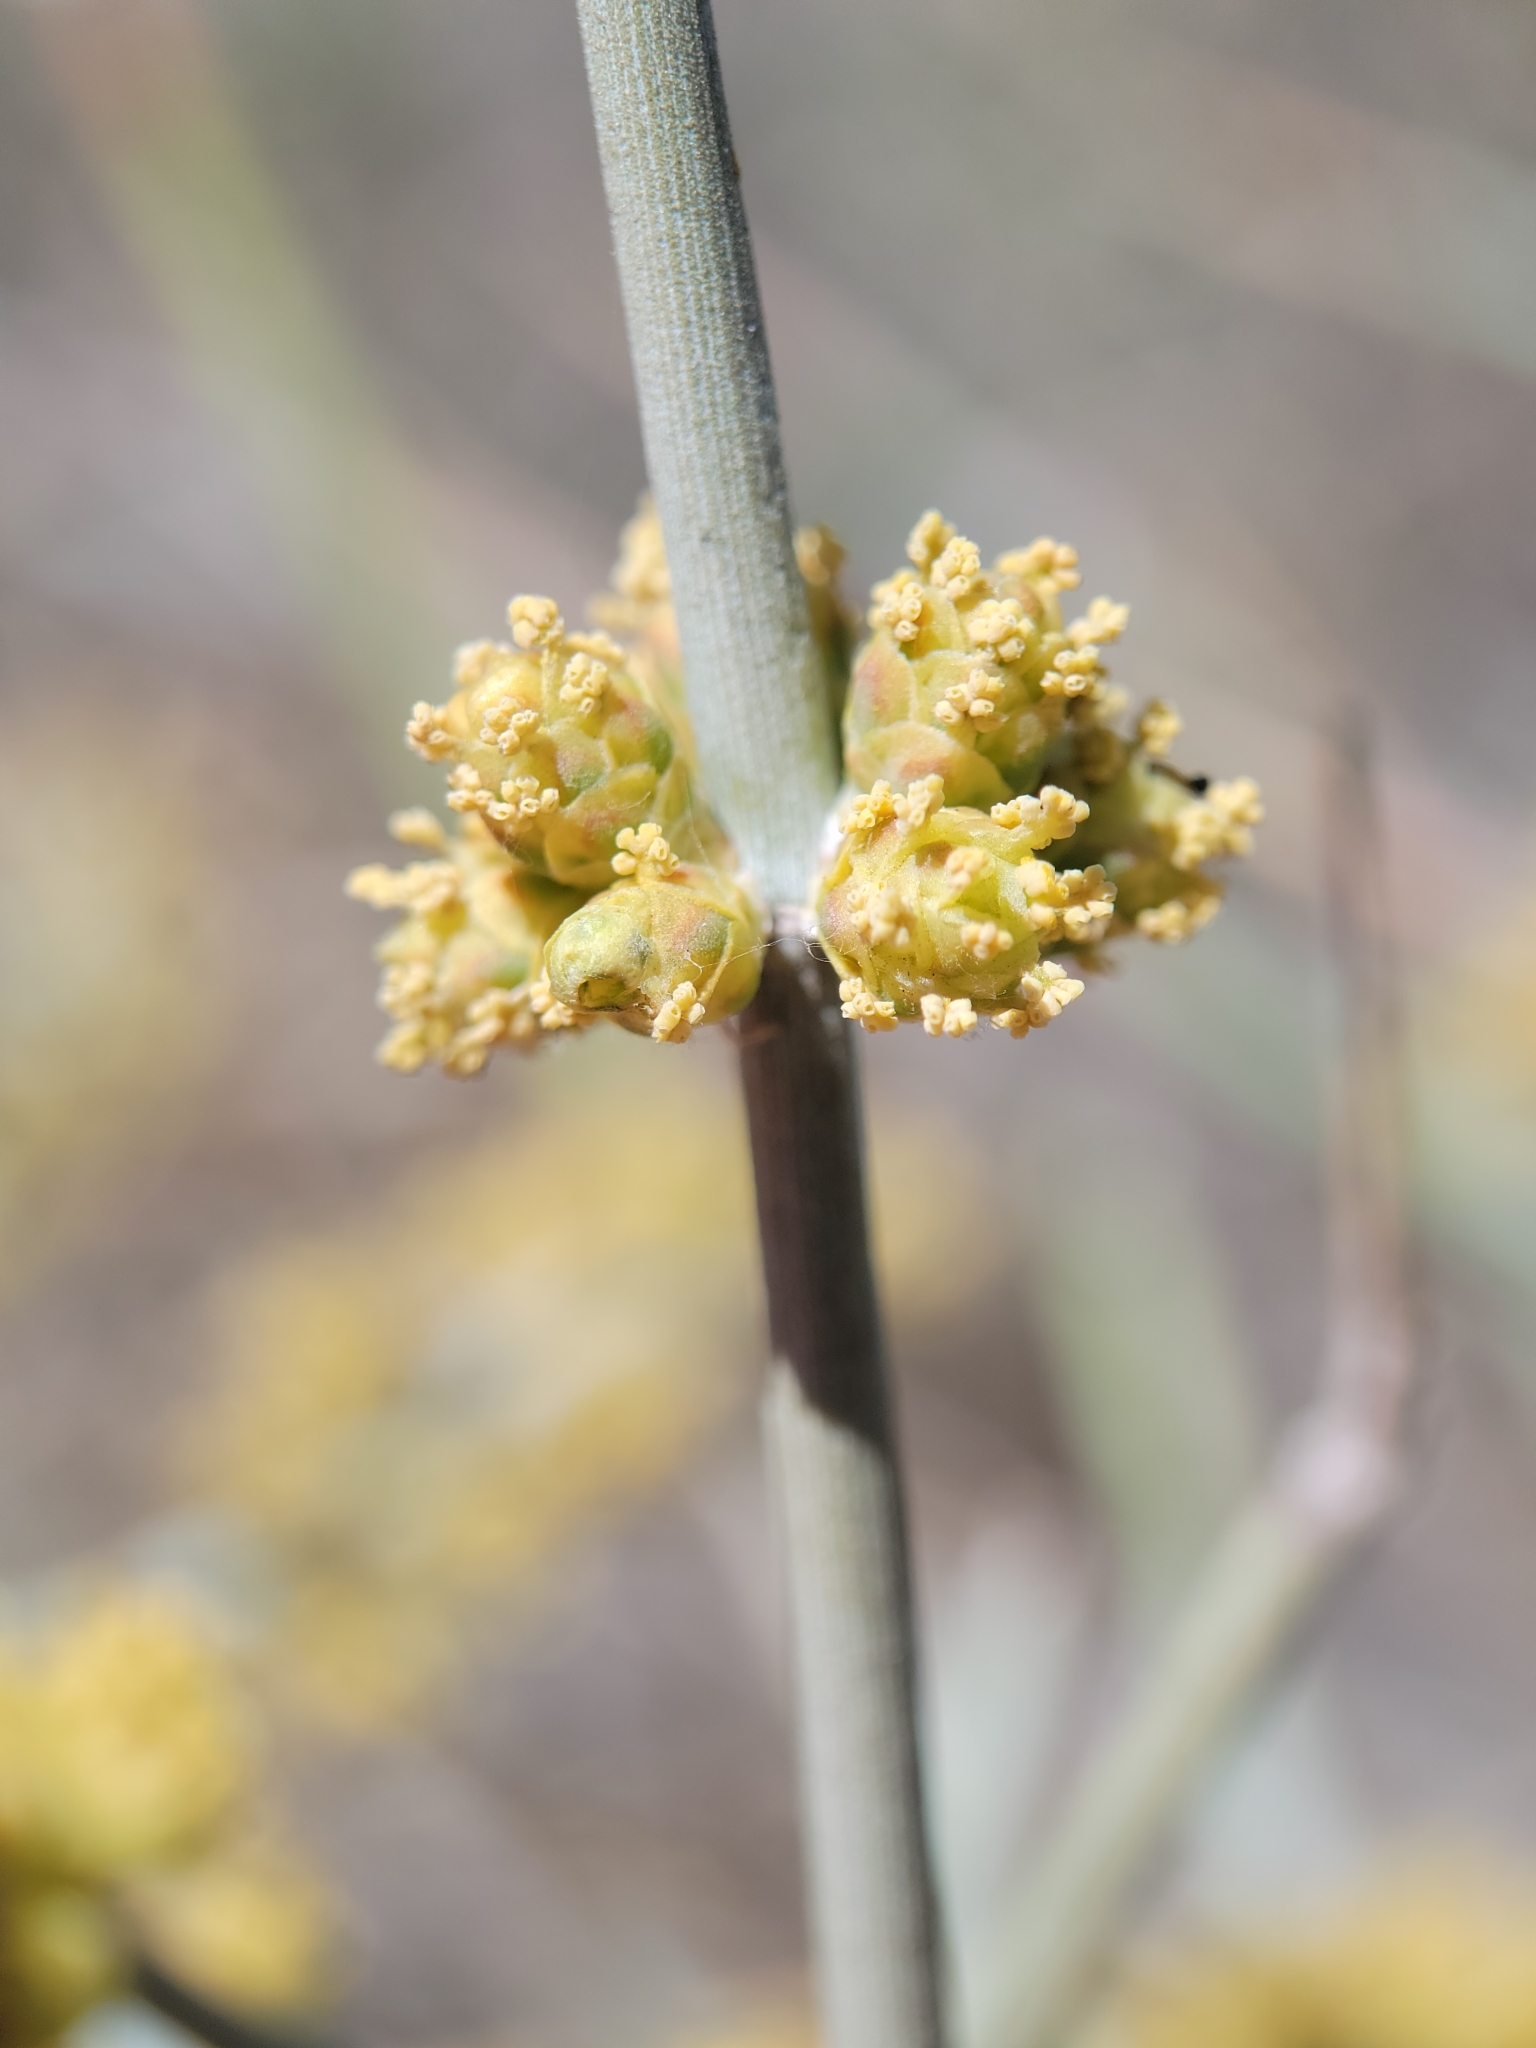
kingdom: Plantae
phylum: Tracheophyta
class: Gnetopsida
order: Ephedrales
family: Ephedraceae
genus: Ephedra
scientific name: Ephedra funerea
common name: Death valley mormon tea
